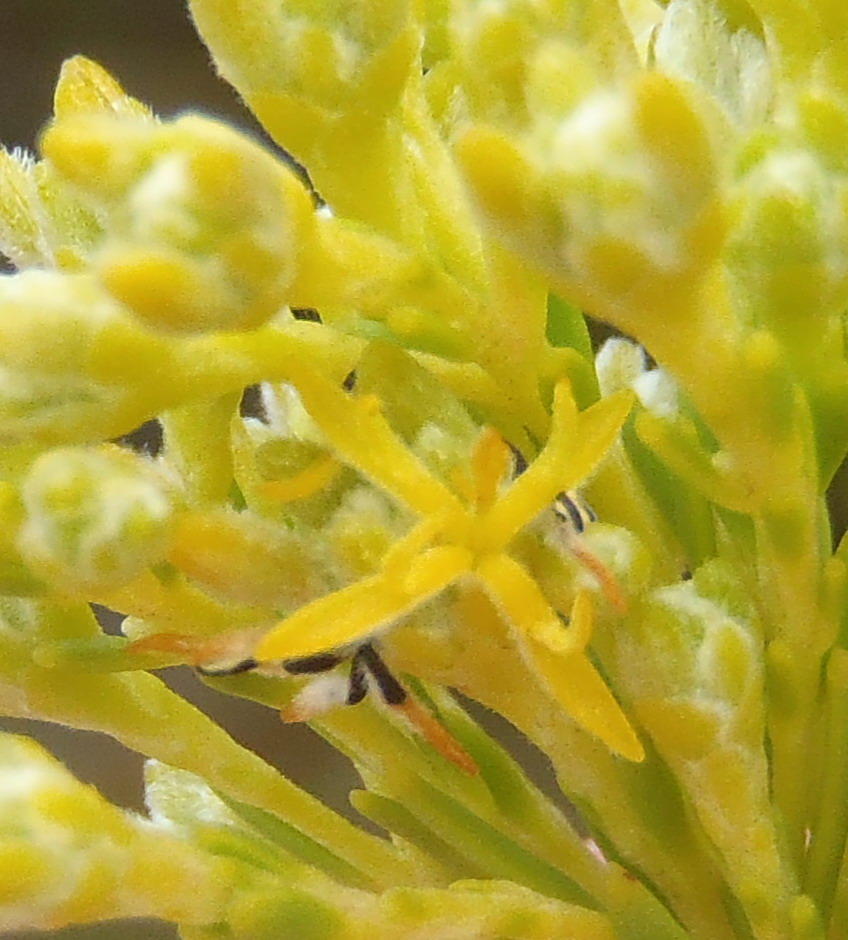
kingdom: Plantae
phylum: Tracheophyta
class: Magnoliopsida
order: Proteales
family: Proteaceae
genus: Leucadendron
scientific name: Leucadendron olens
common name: Yellow conebush
